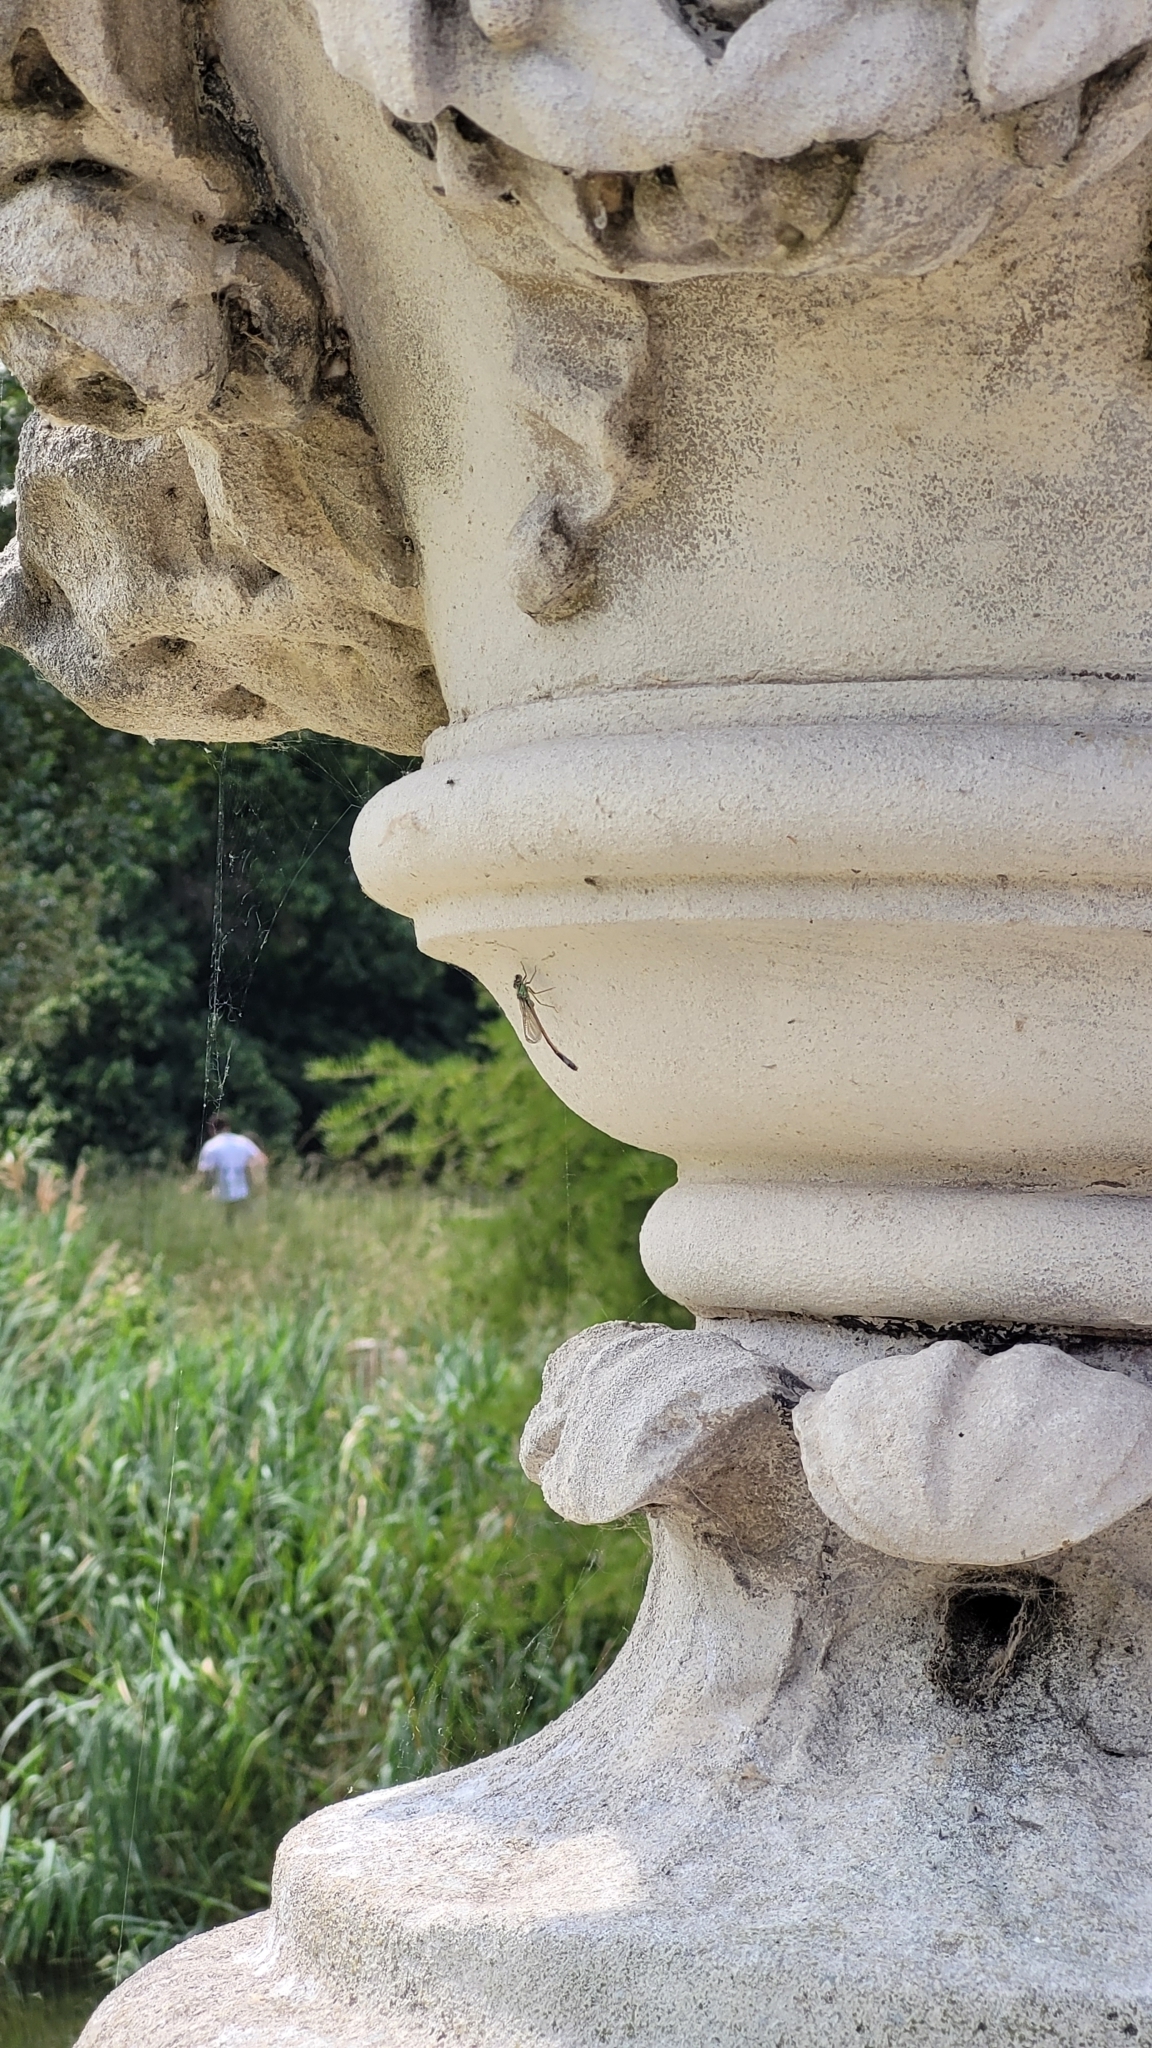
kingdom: Animalia
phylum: Arthropoda
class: Insecta
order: Odonata
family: Coenagrionidae
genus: Ischnura
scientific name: Ischnura elegans
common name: Blue-tailed damselfly
